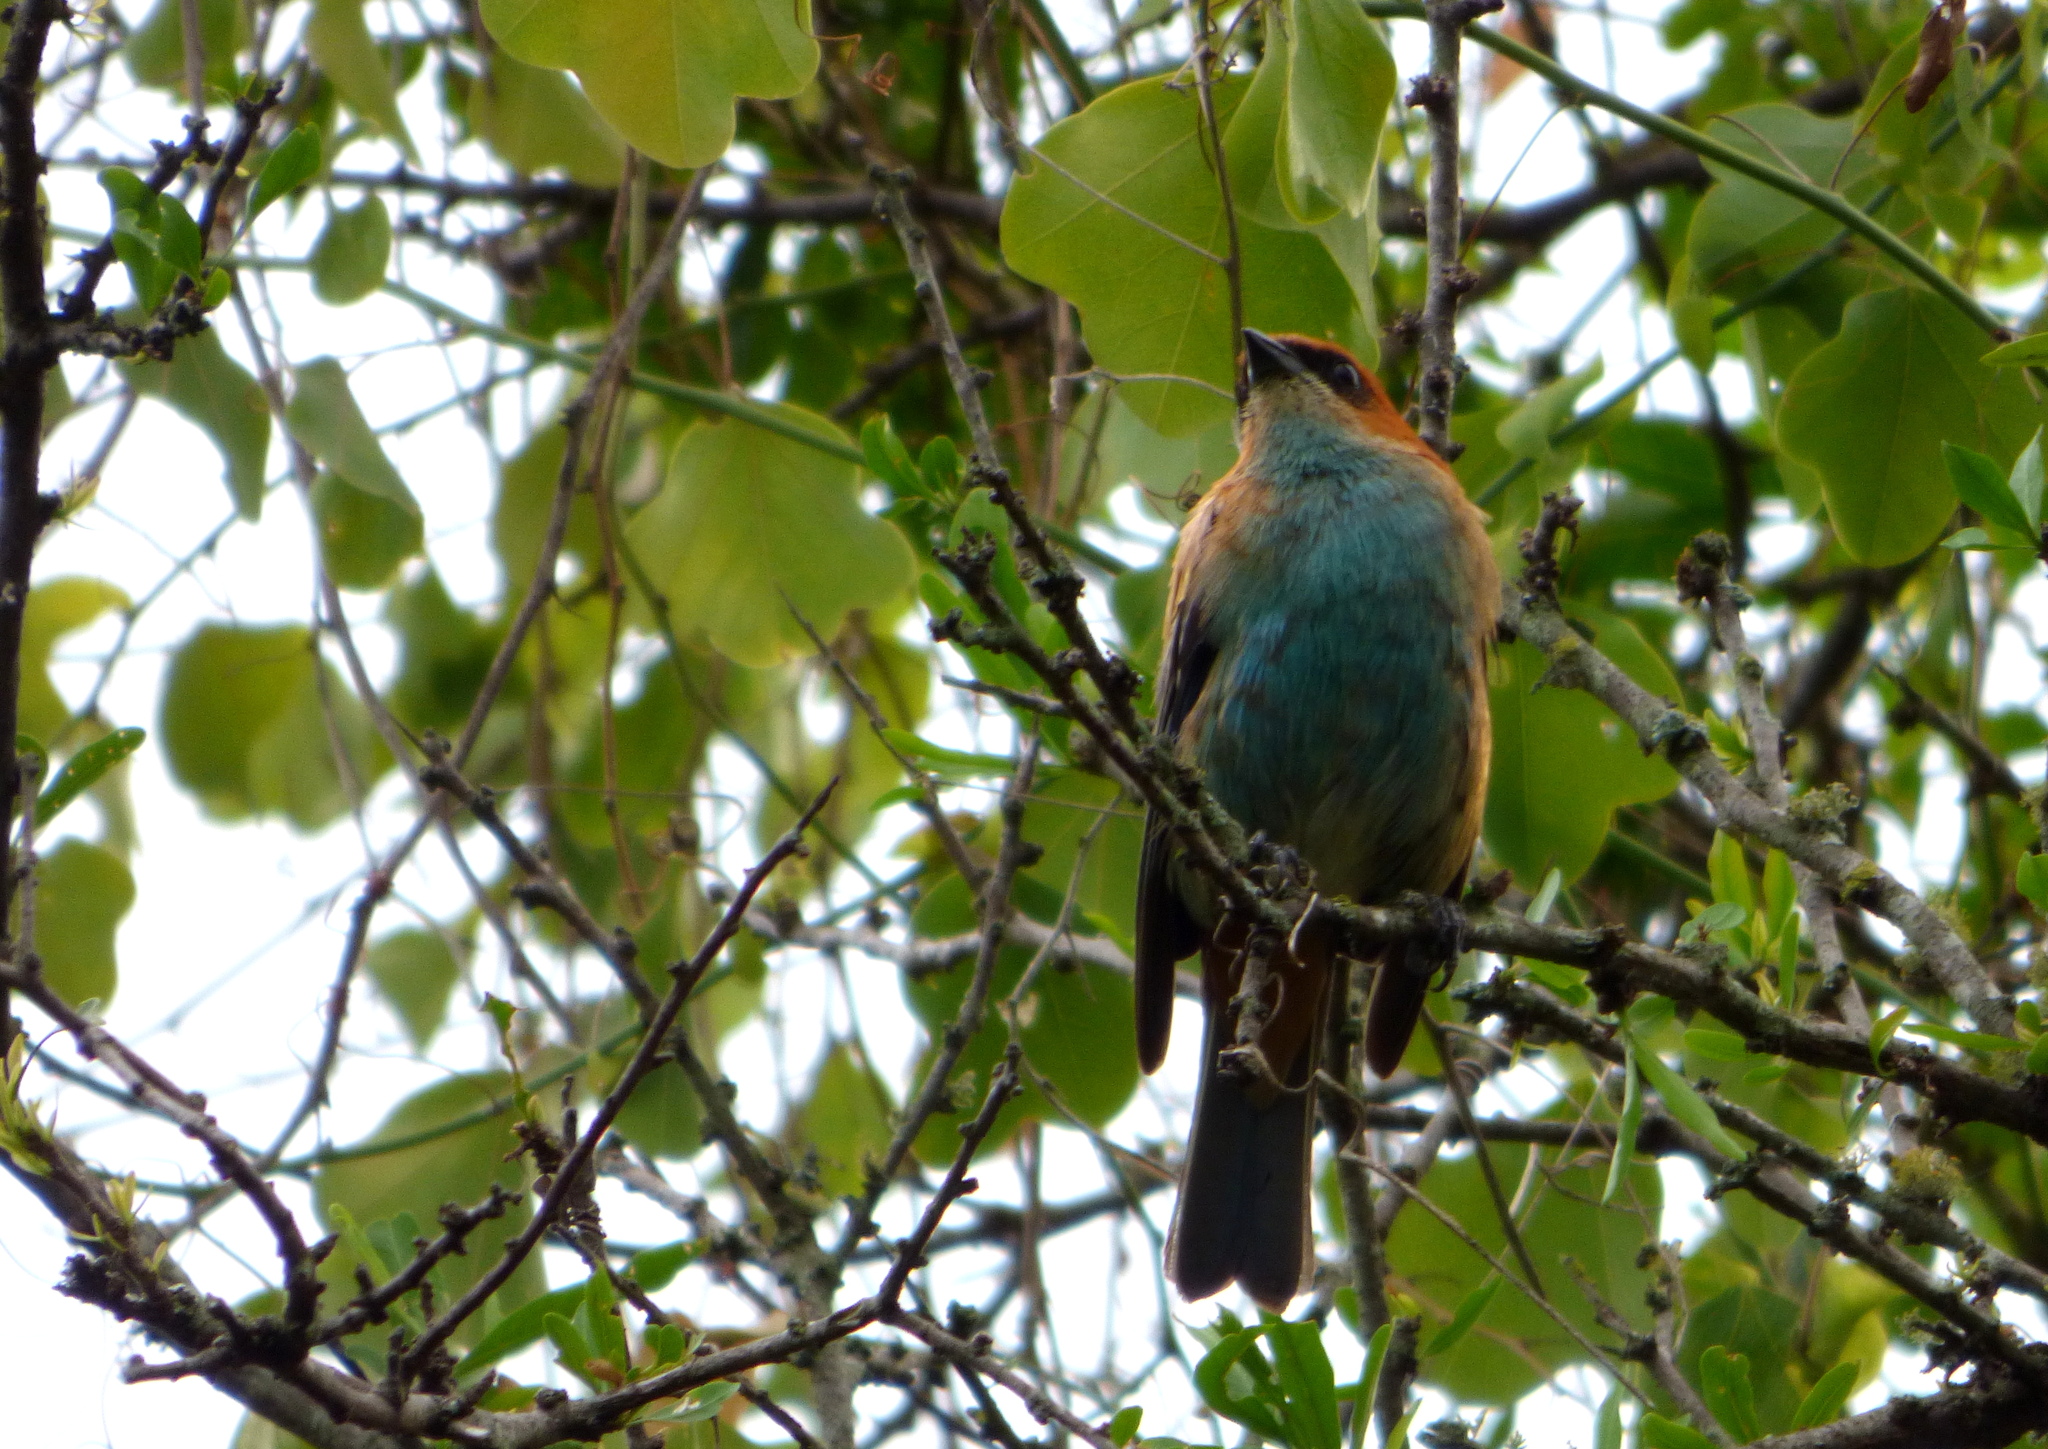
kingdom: Animalia
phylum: Chordata
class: Aves
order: Passeriformes
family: Thraupidae
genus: Stilpnia
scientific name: Stilpnia preciosa
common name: Chestnut-backed tanager
